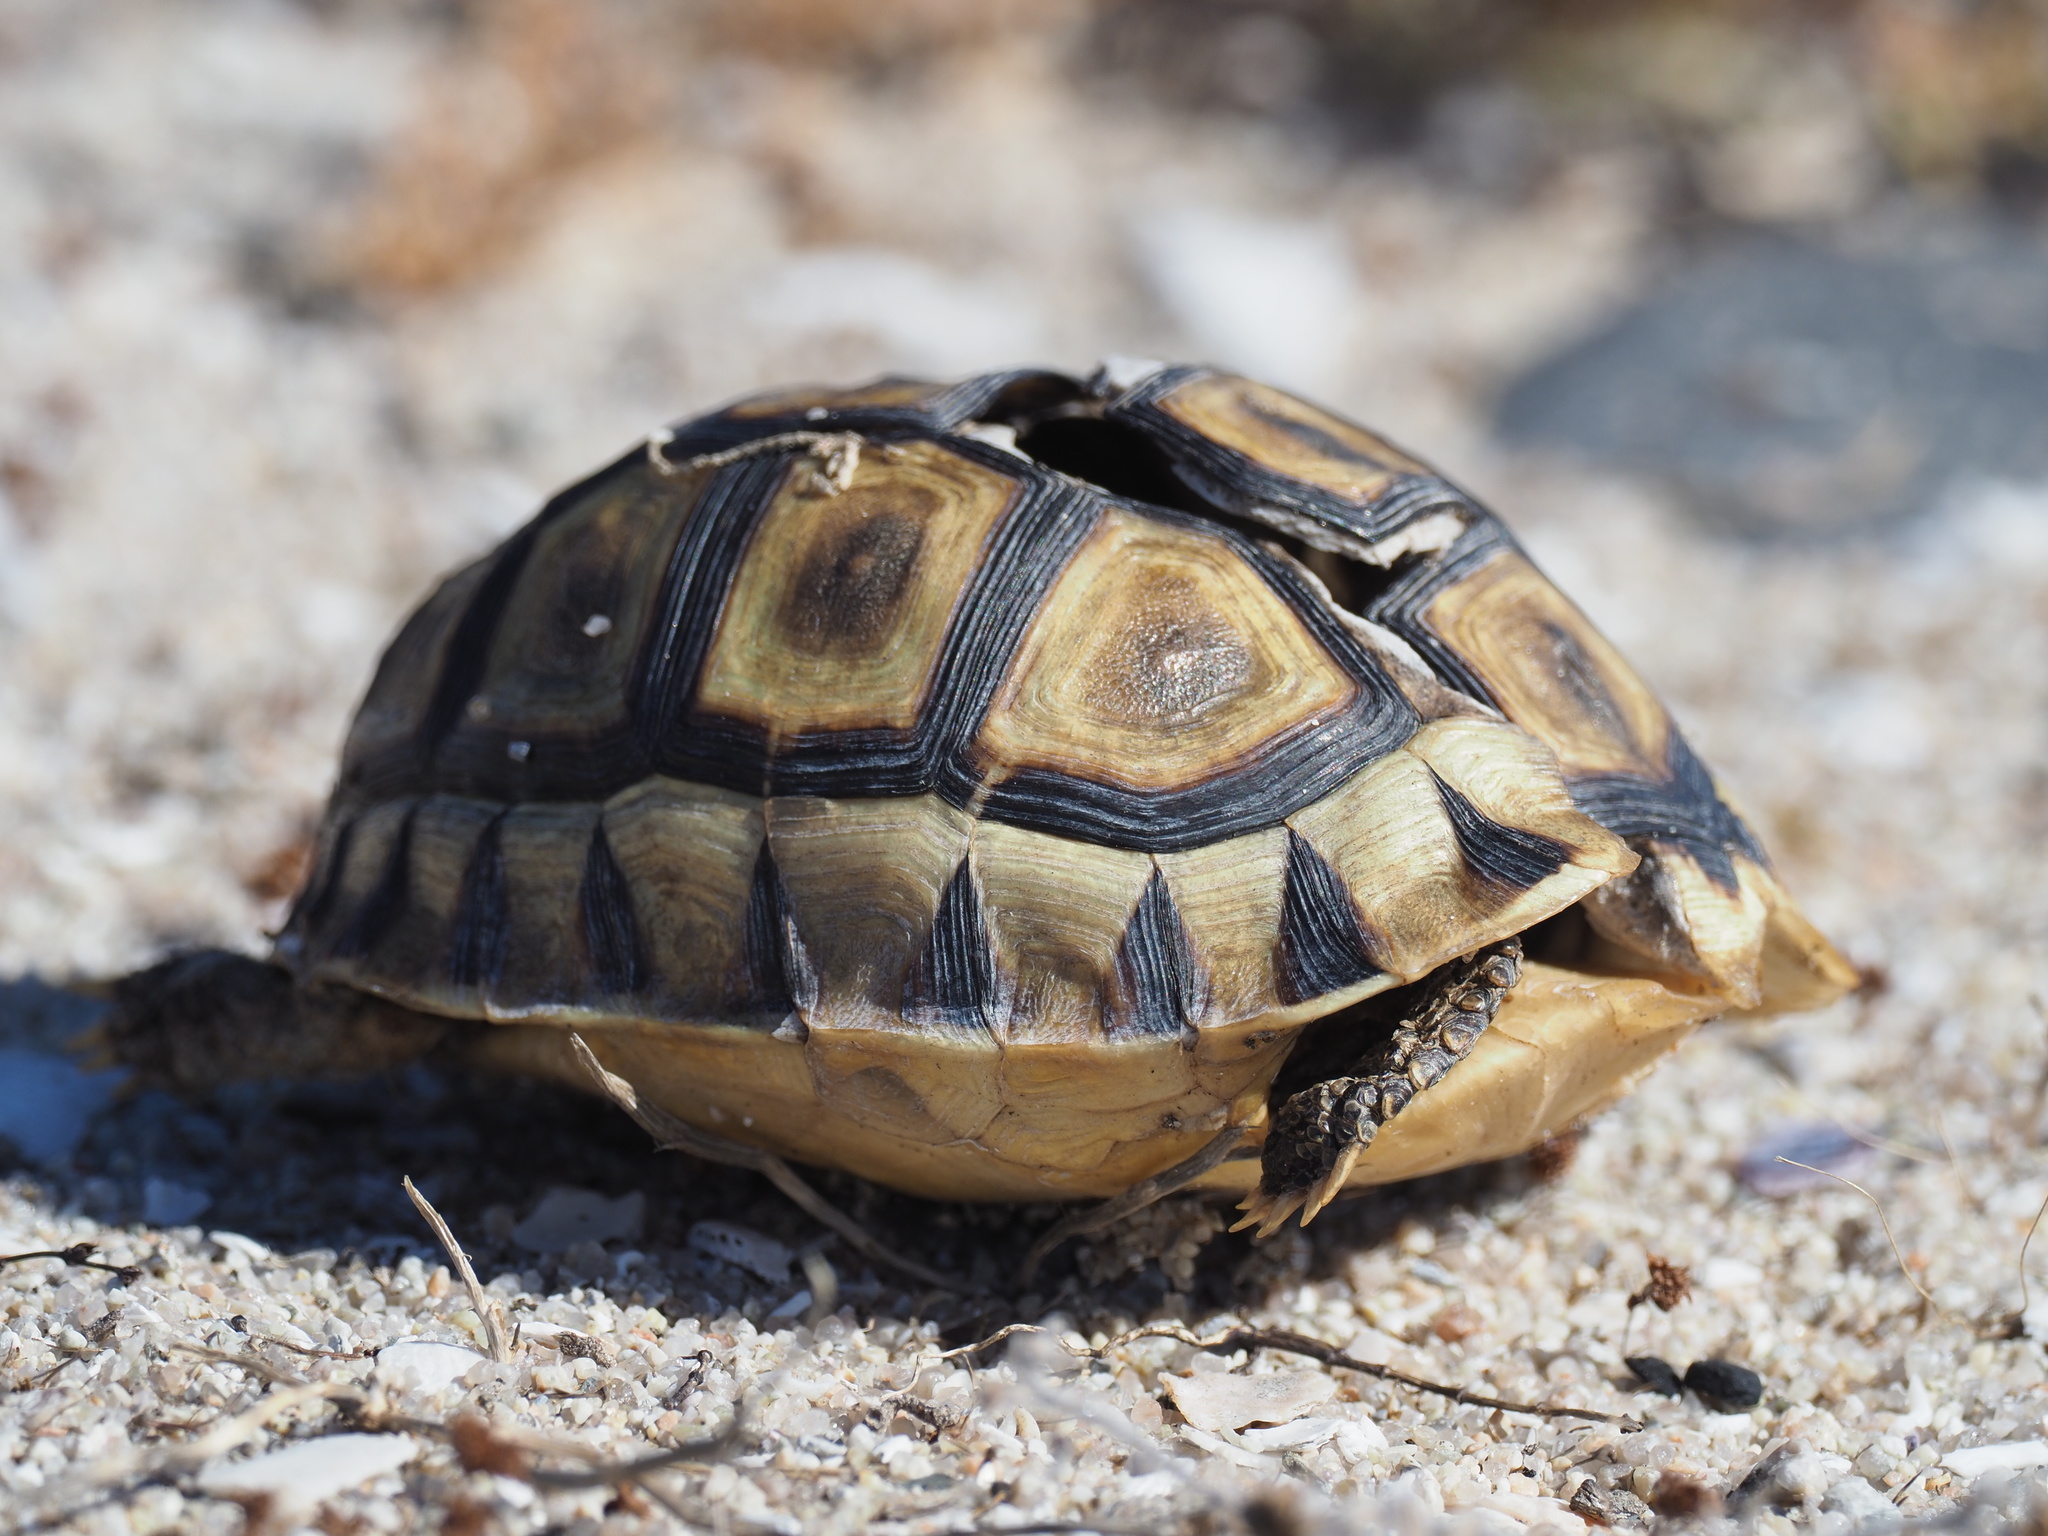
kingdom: Animalia
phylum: Chordata
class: Testudines
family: Testudinidae
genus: Chersina
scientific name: Chersina angulata
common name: South african bowsprit tortoise
